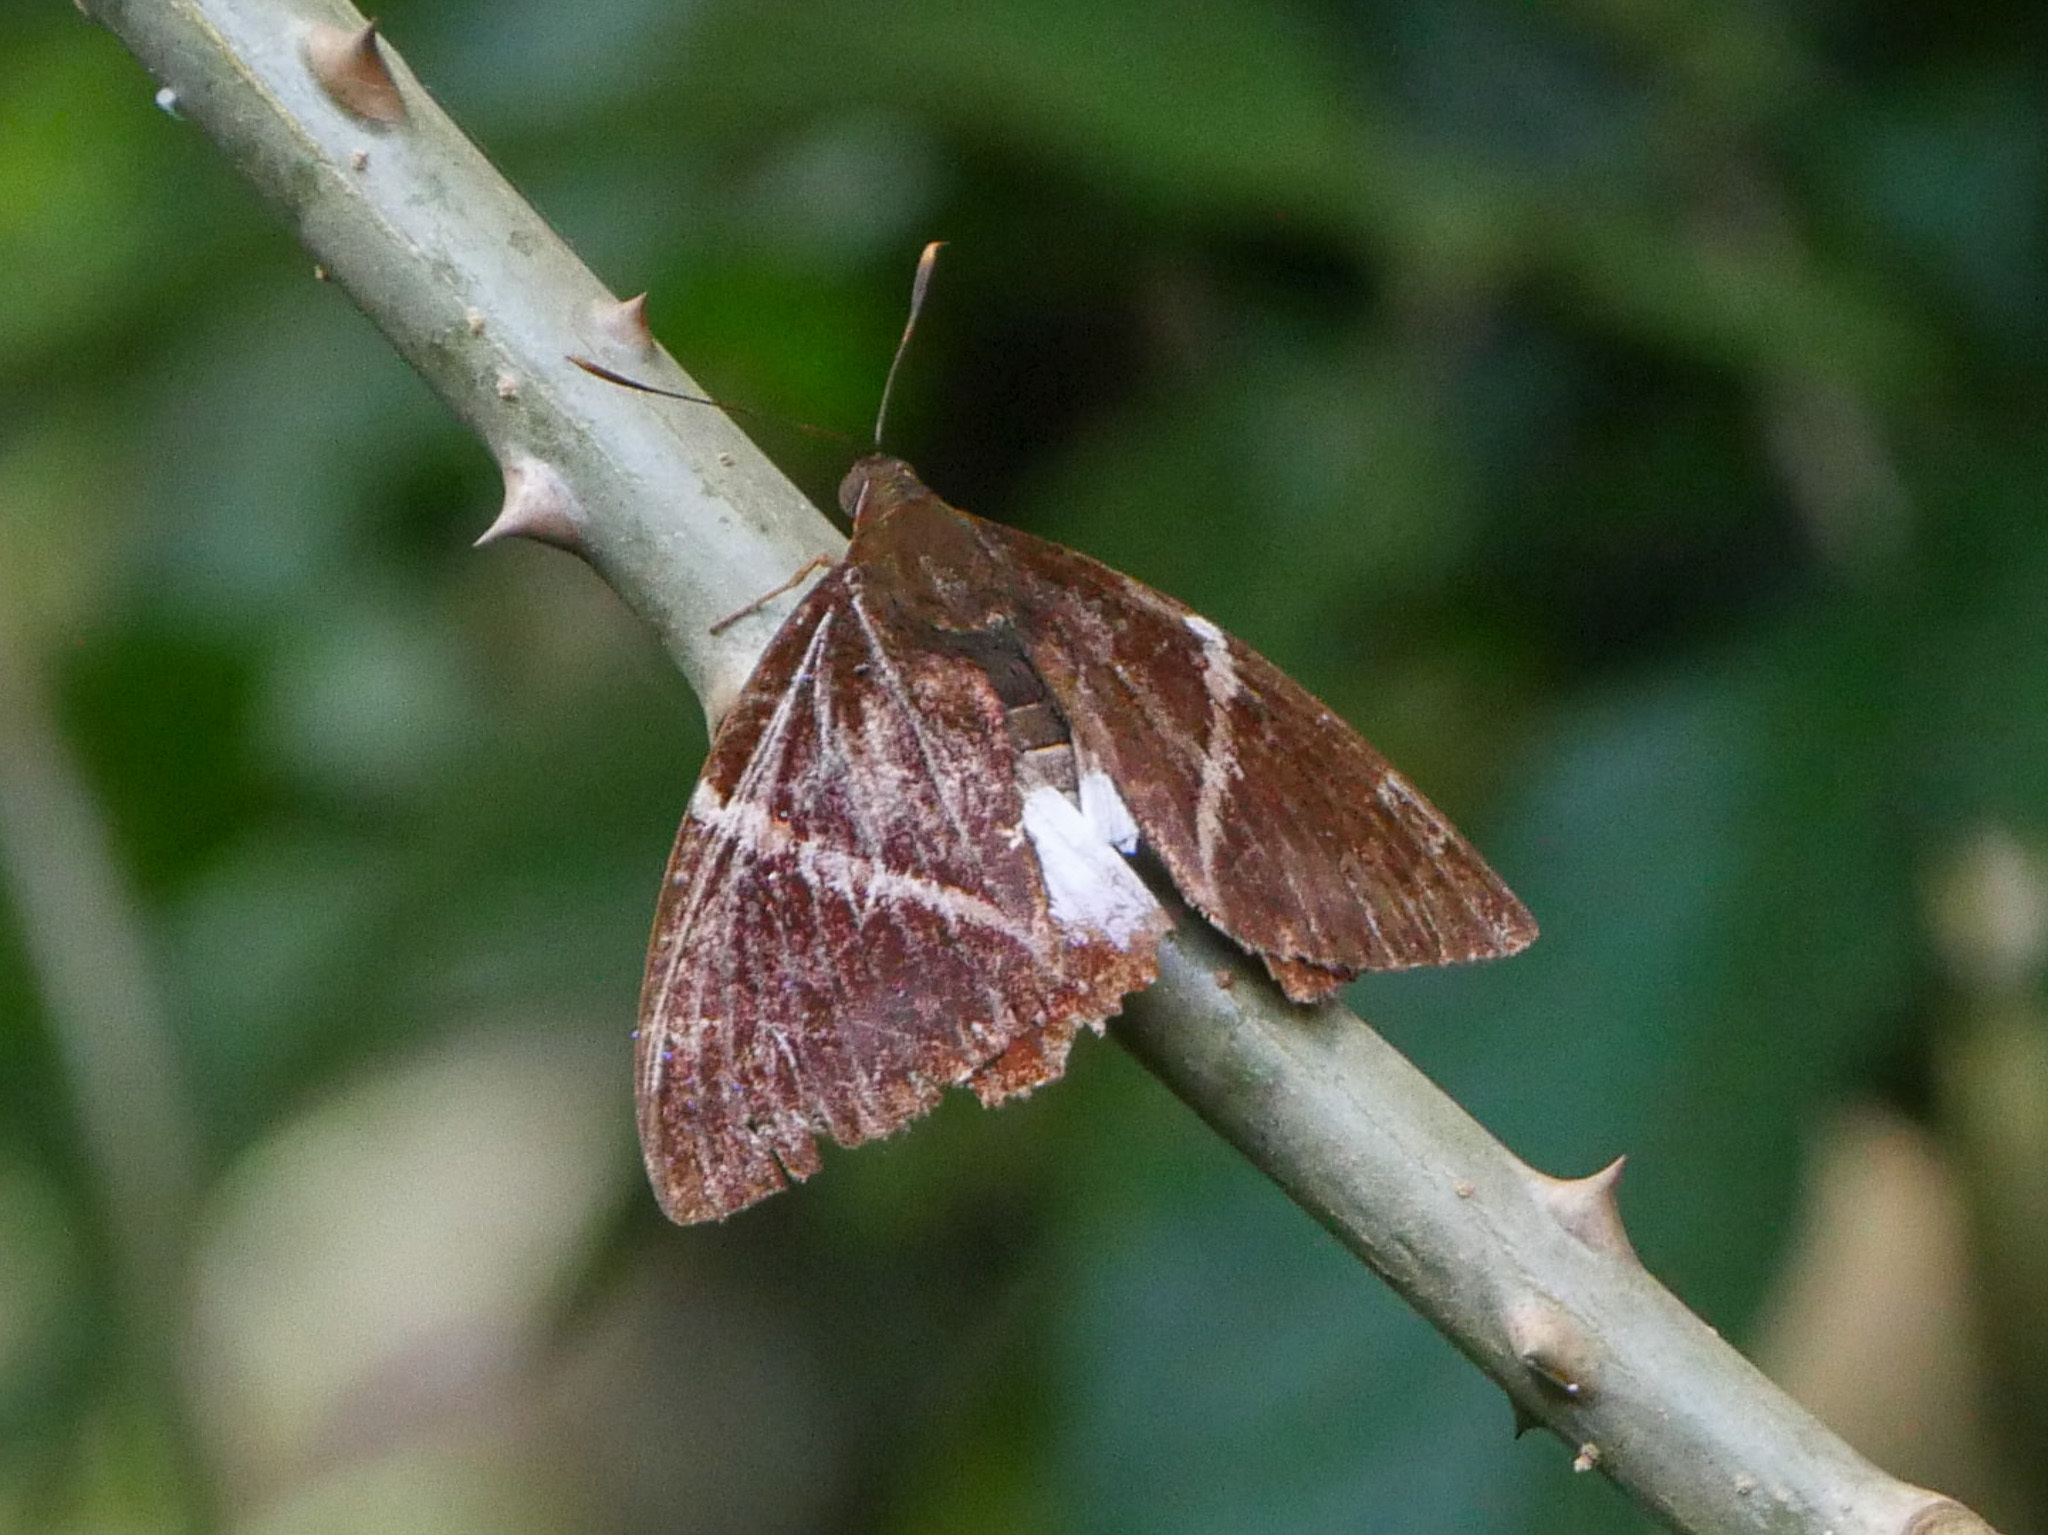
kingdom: Animalia
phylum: Arthropoda
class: Insecta
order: Lepidoptera
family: Castniidae
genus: Castniomera
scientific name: Castniomera atymnius
